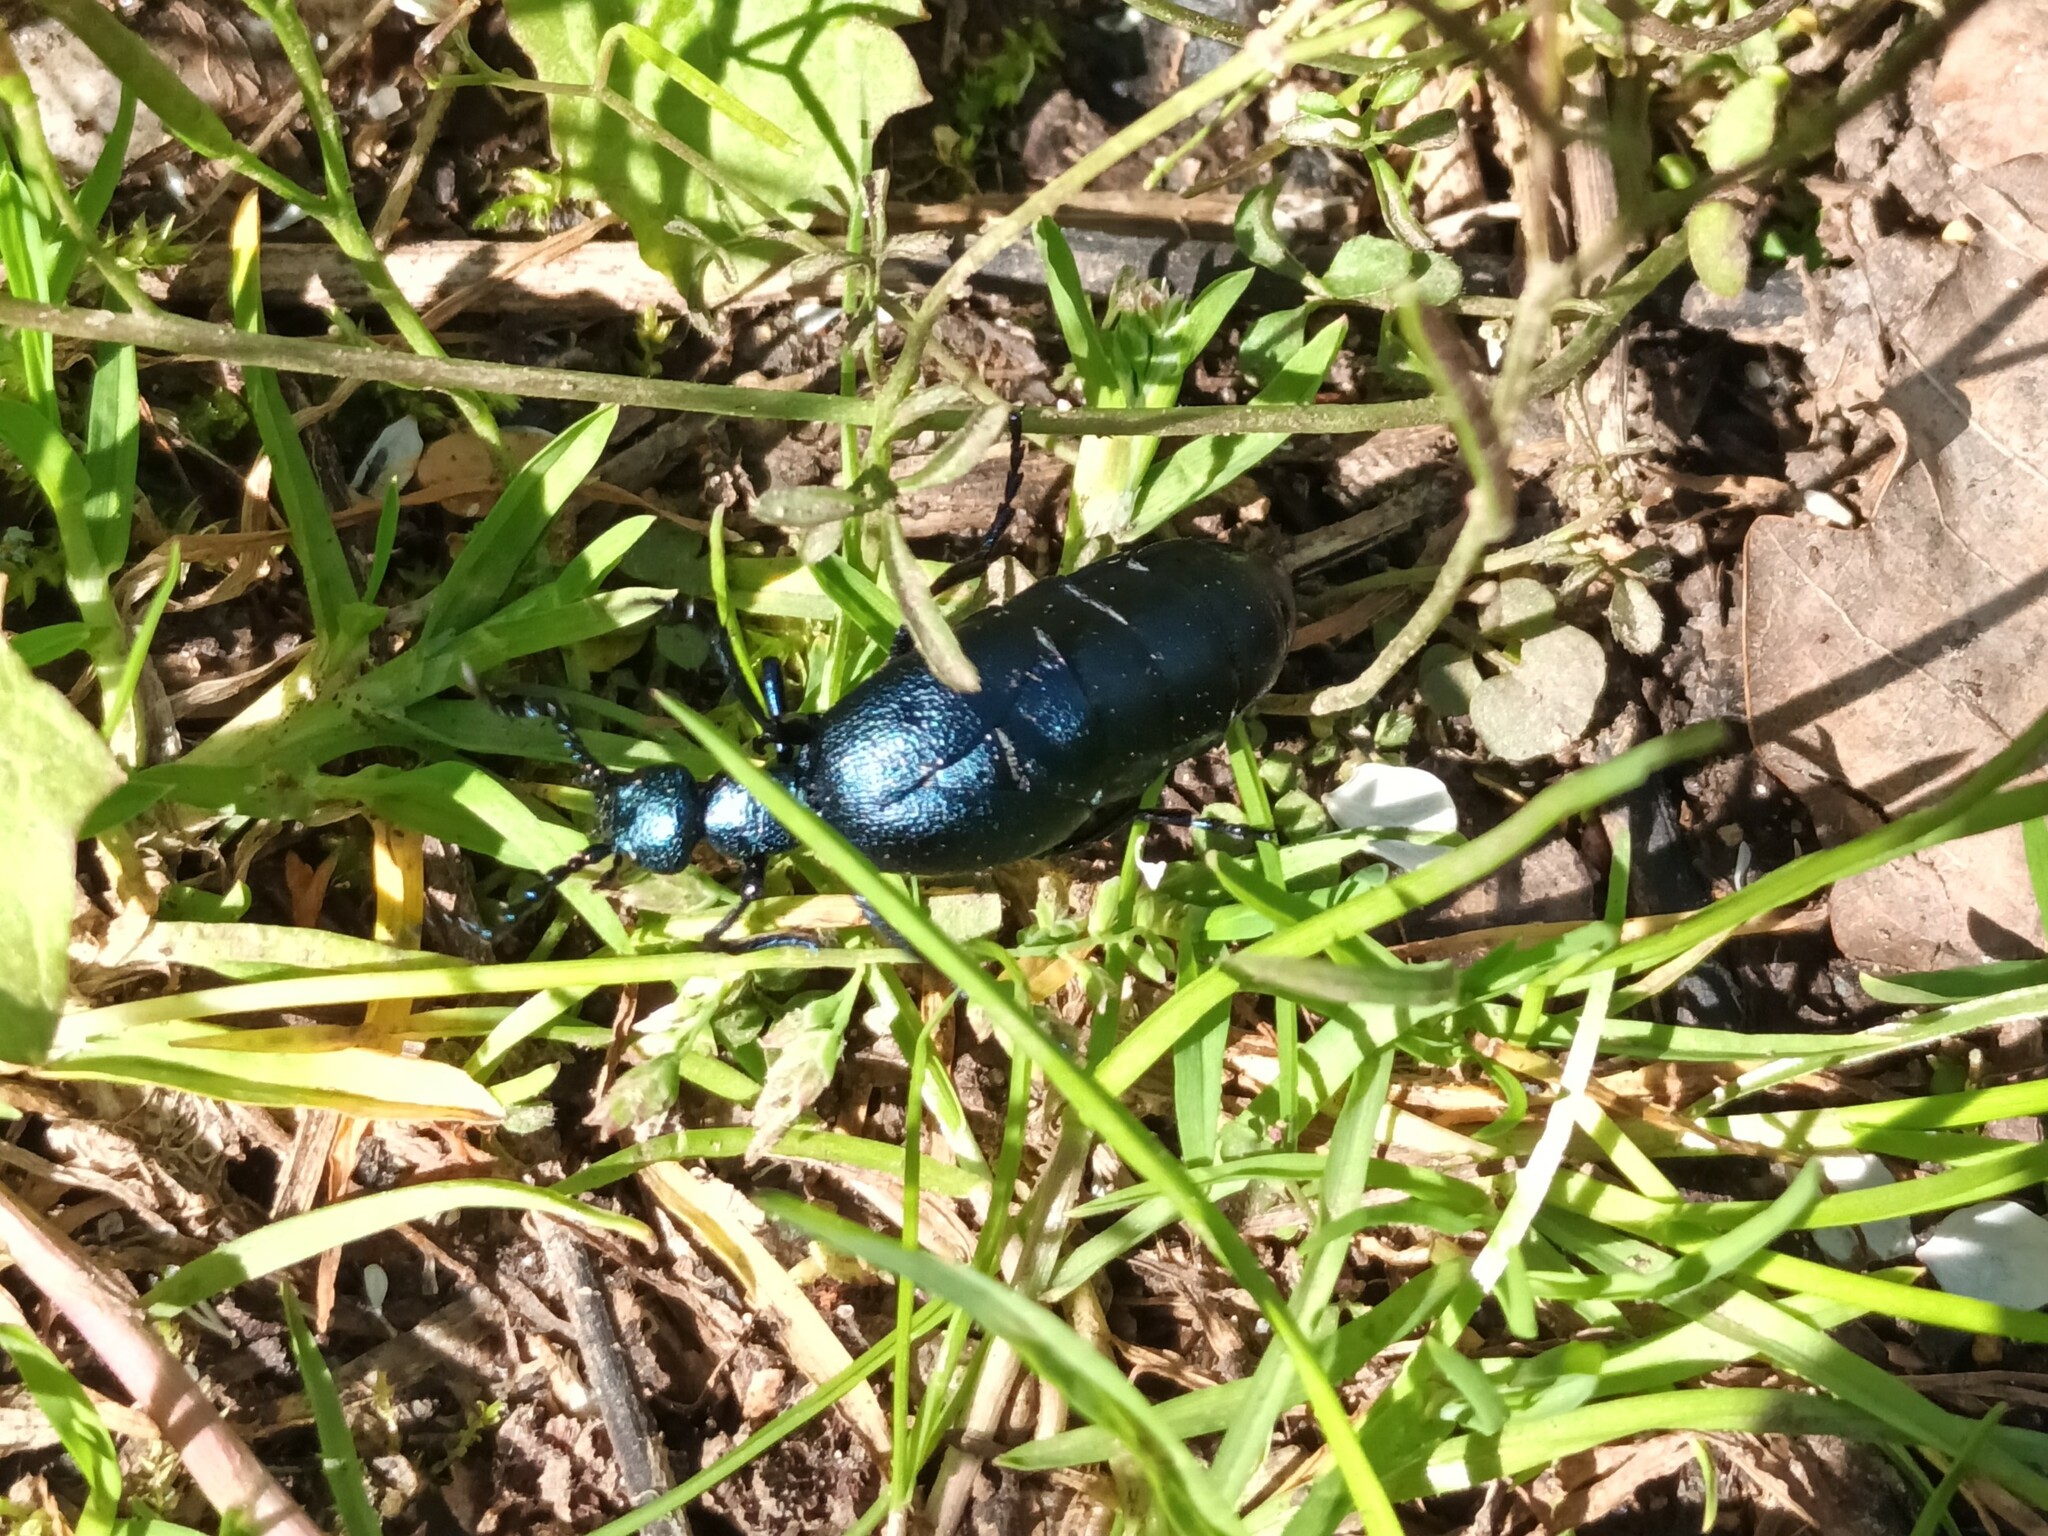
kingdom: Animalia
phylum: Arthropoda
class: Insecta
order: Coleoptera
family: Meloidae
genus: Meloe
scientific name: Meloe violaceus
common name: Violet oil-beetle
